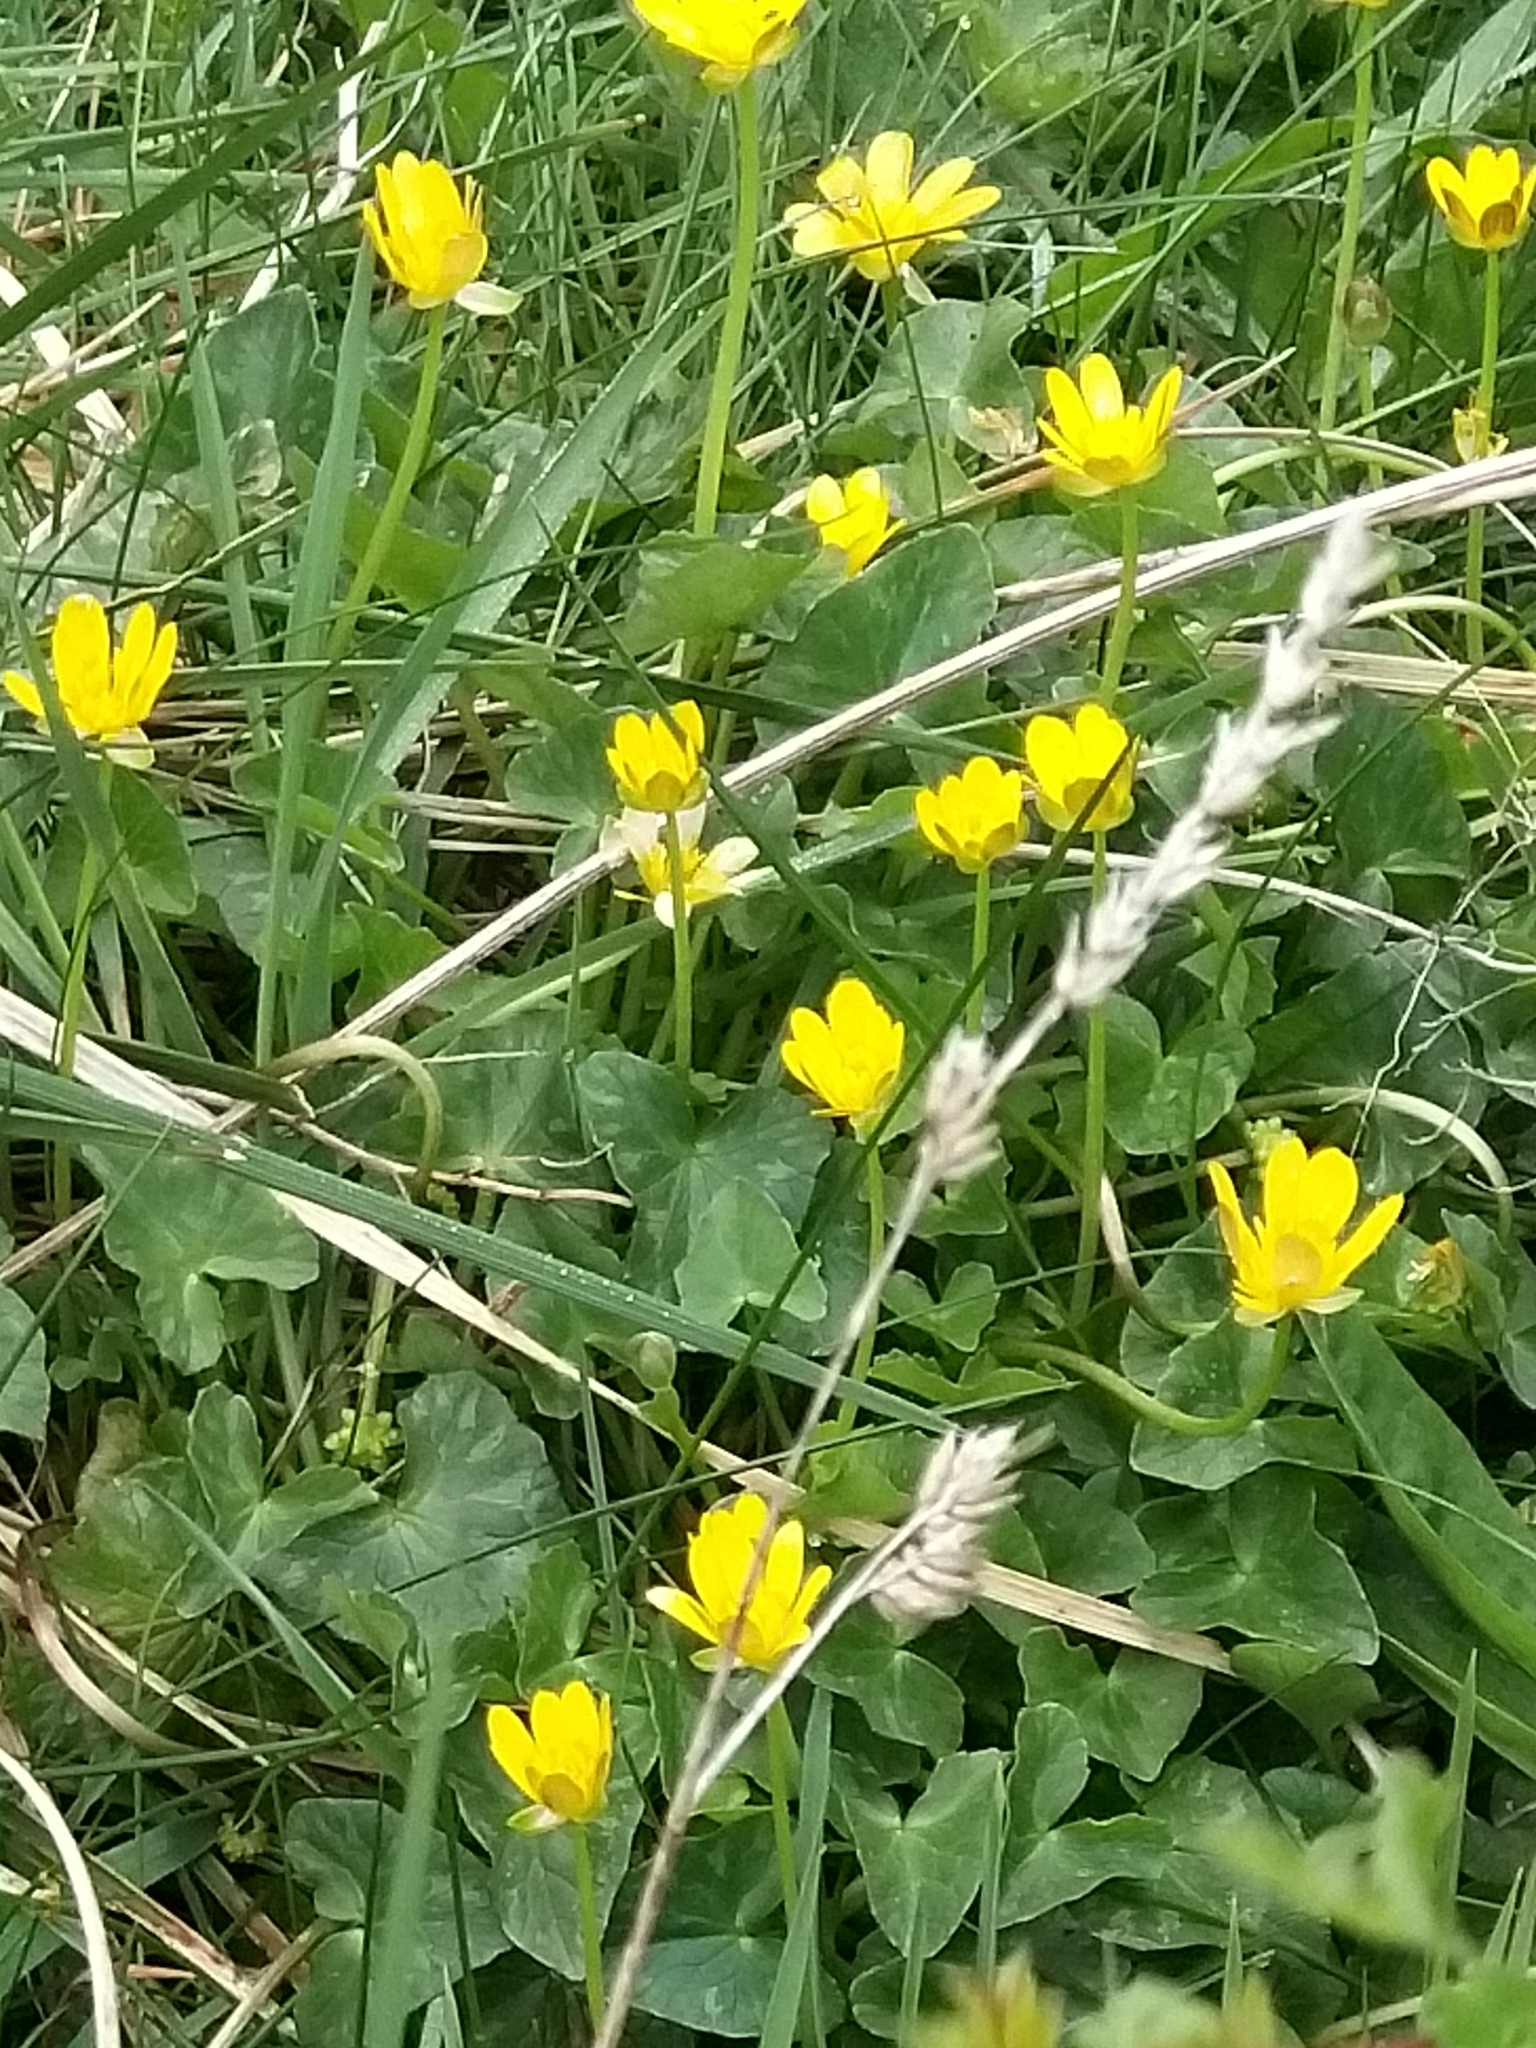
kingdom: Plantae
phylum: Tracheophyta
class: Magnoliopsida
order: Ranunculales
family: Ranunculaceae
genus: Ficaria
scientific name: Ficaria verna
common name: Lesser celandine
